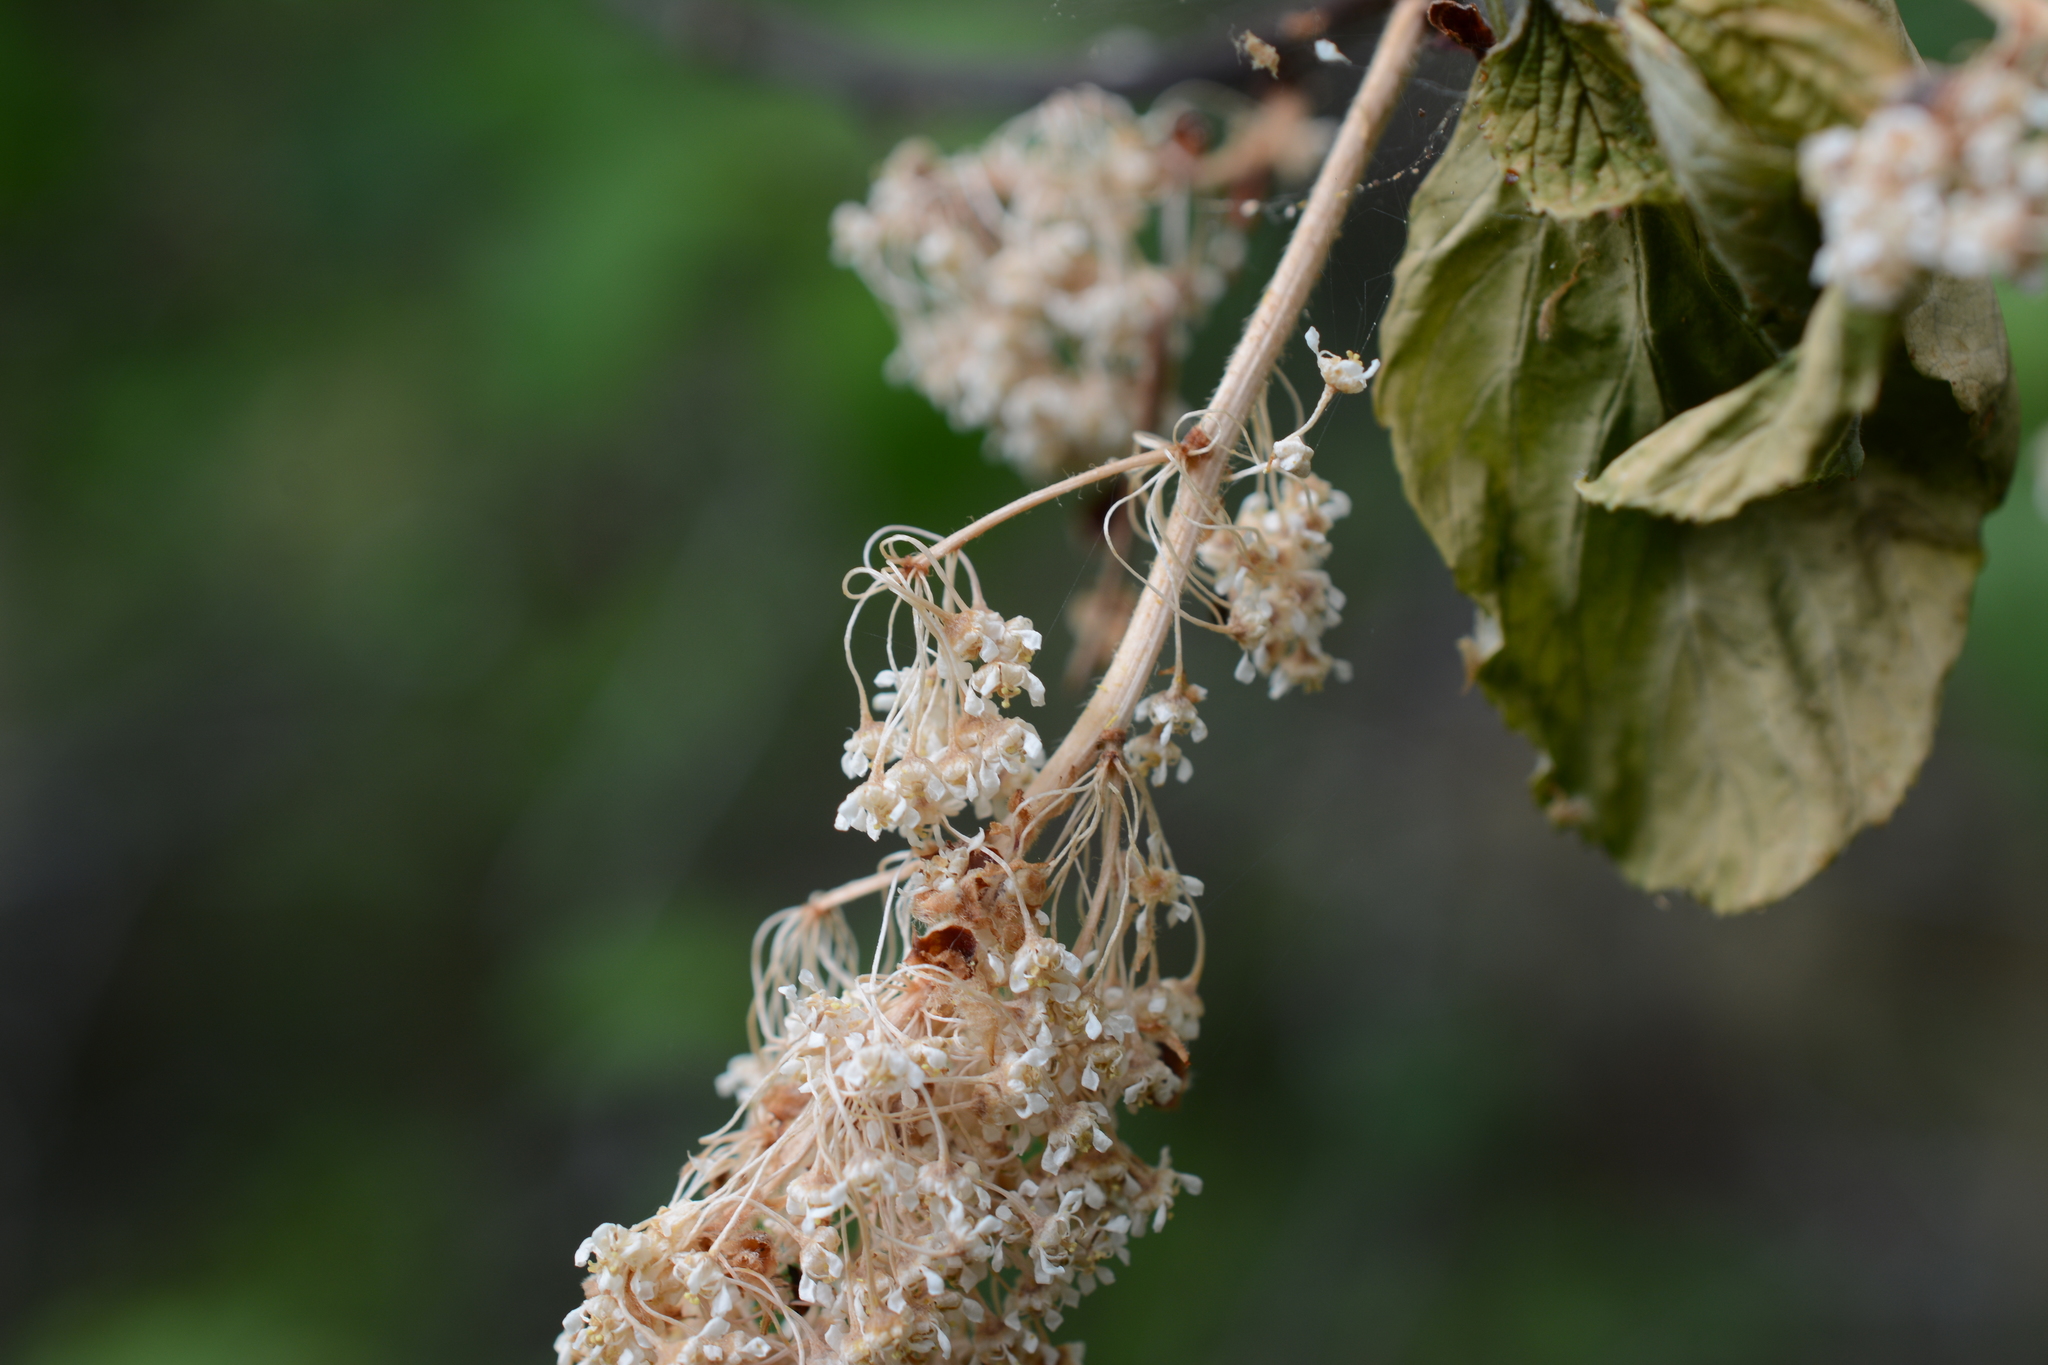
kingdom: Plantae
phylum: Tracheophyta
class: Magnoliopsida
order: Rosales
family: Rhamnaceae
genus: Ceanothus
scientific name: Ceanothus sanguineus
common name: Teatree
